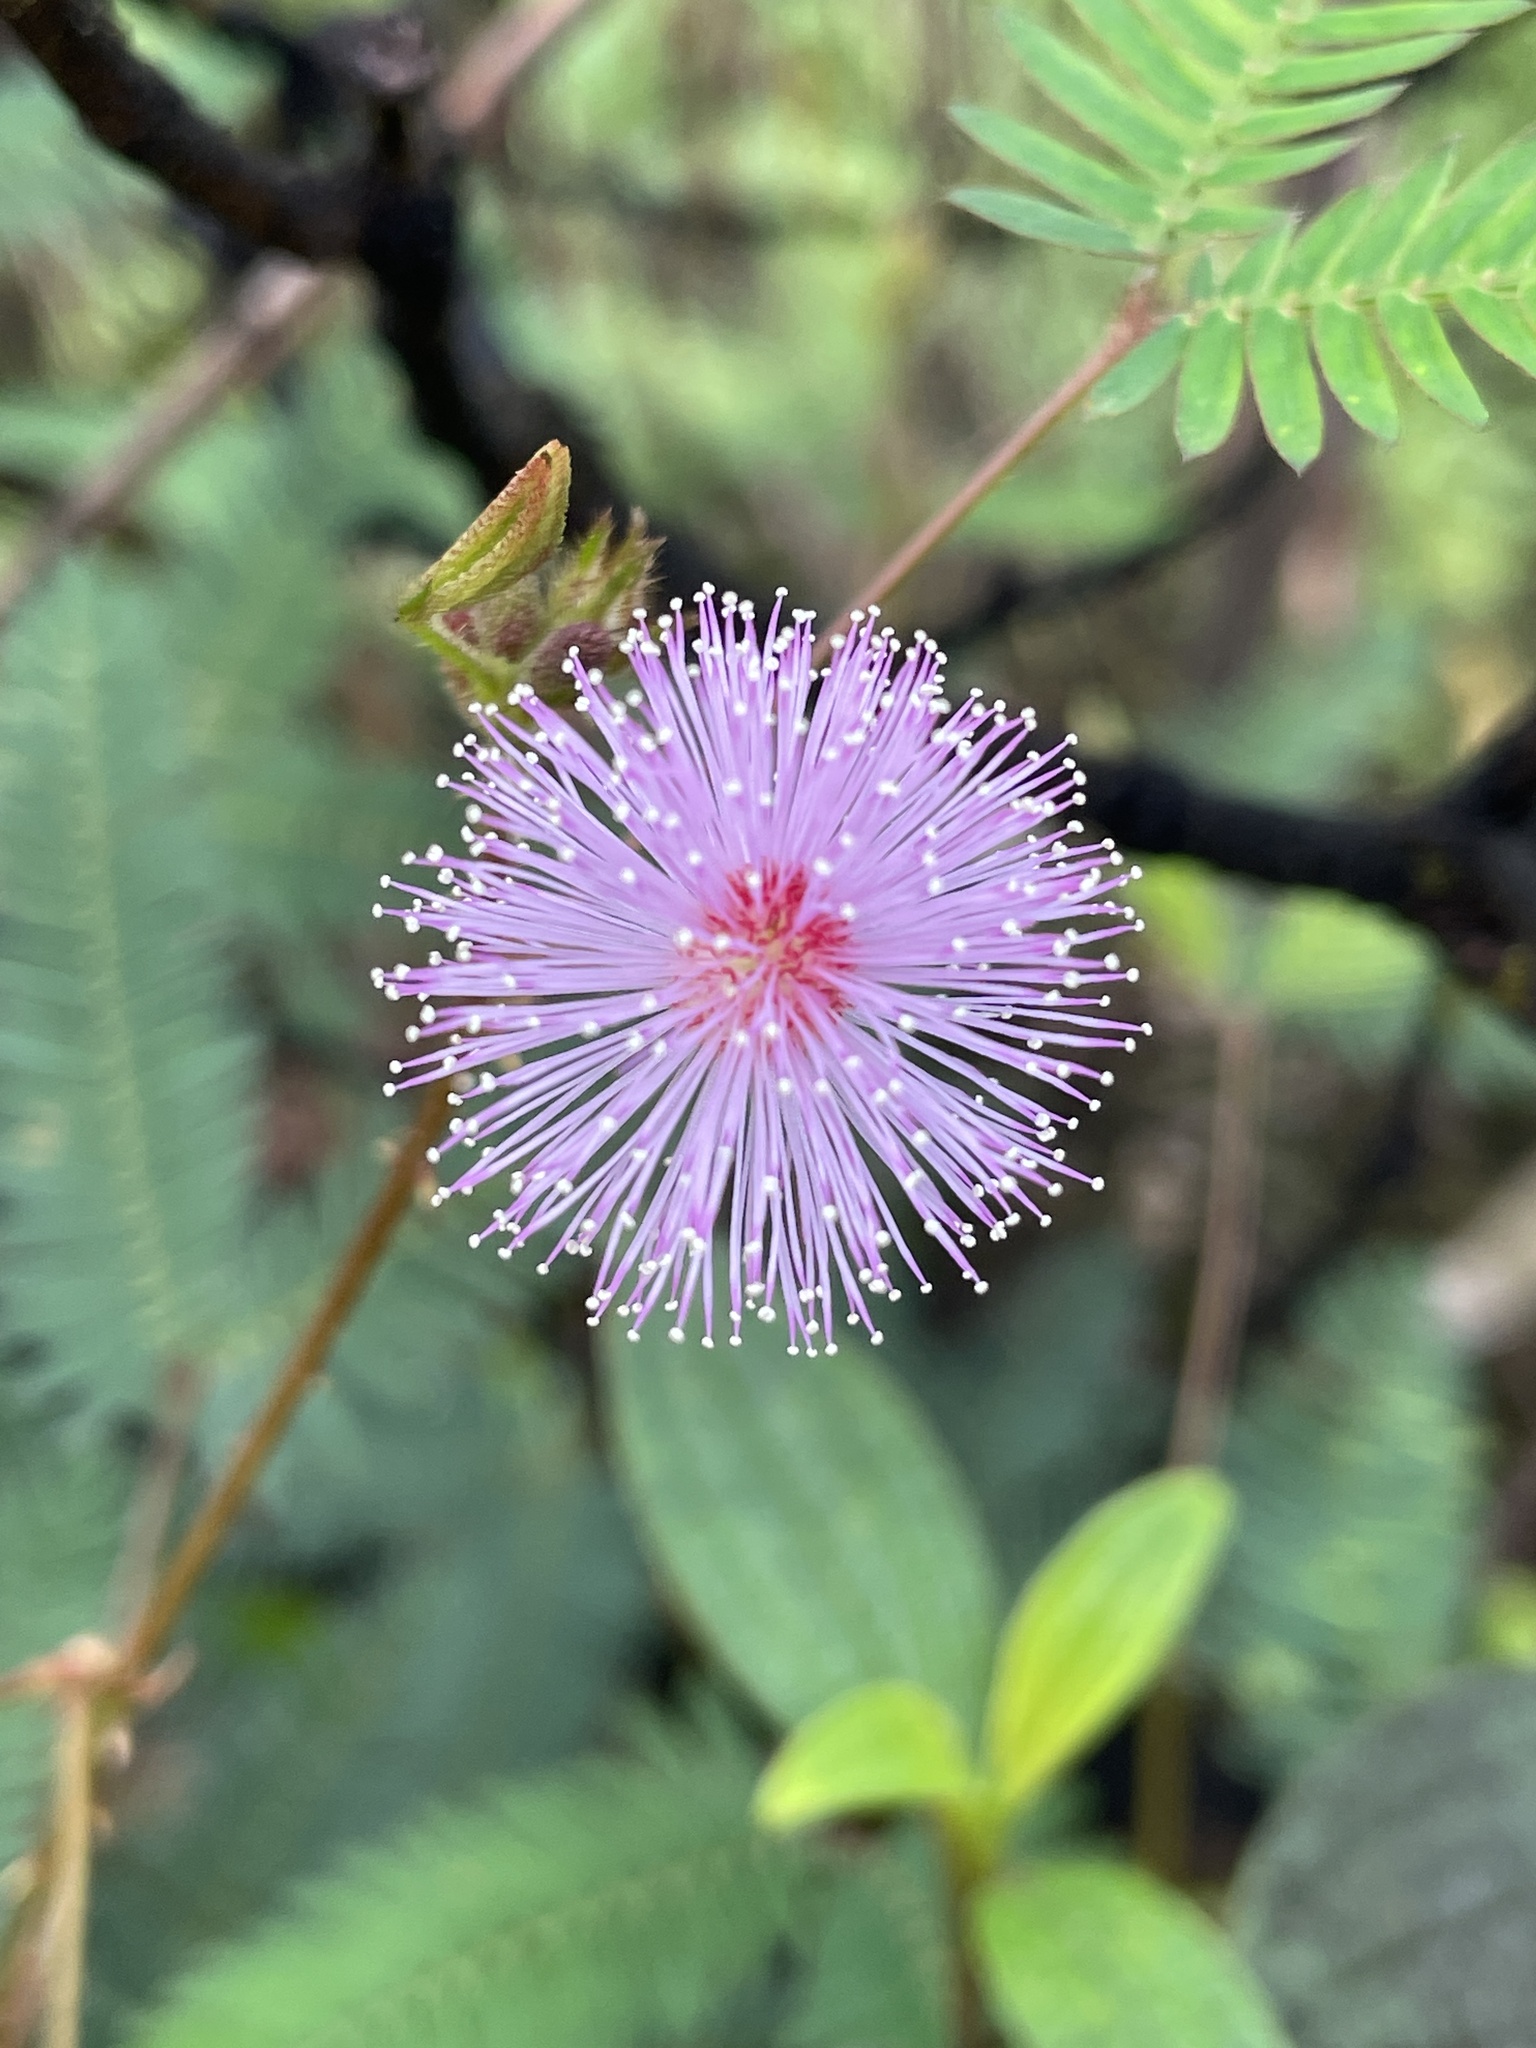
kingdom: Plantae
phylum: Tracheophyta
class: Magnoliopsida
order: Fabales
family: Fabaceae
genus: Mimosa
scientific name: Mimosa pudica
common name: Sensitive plant
